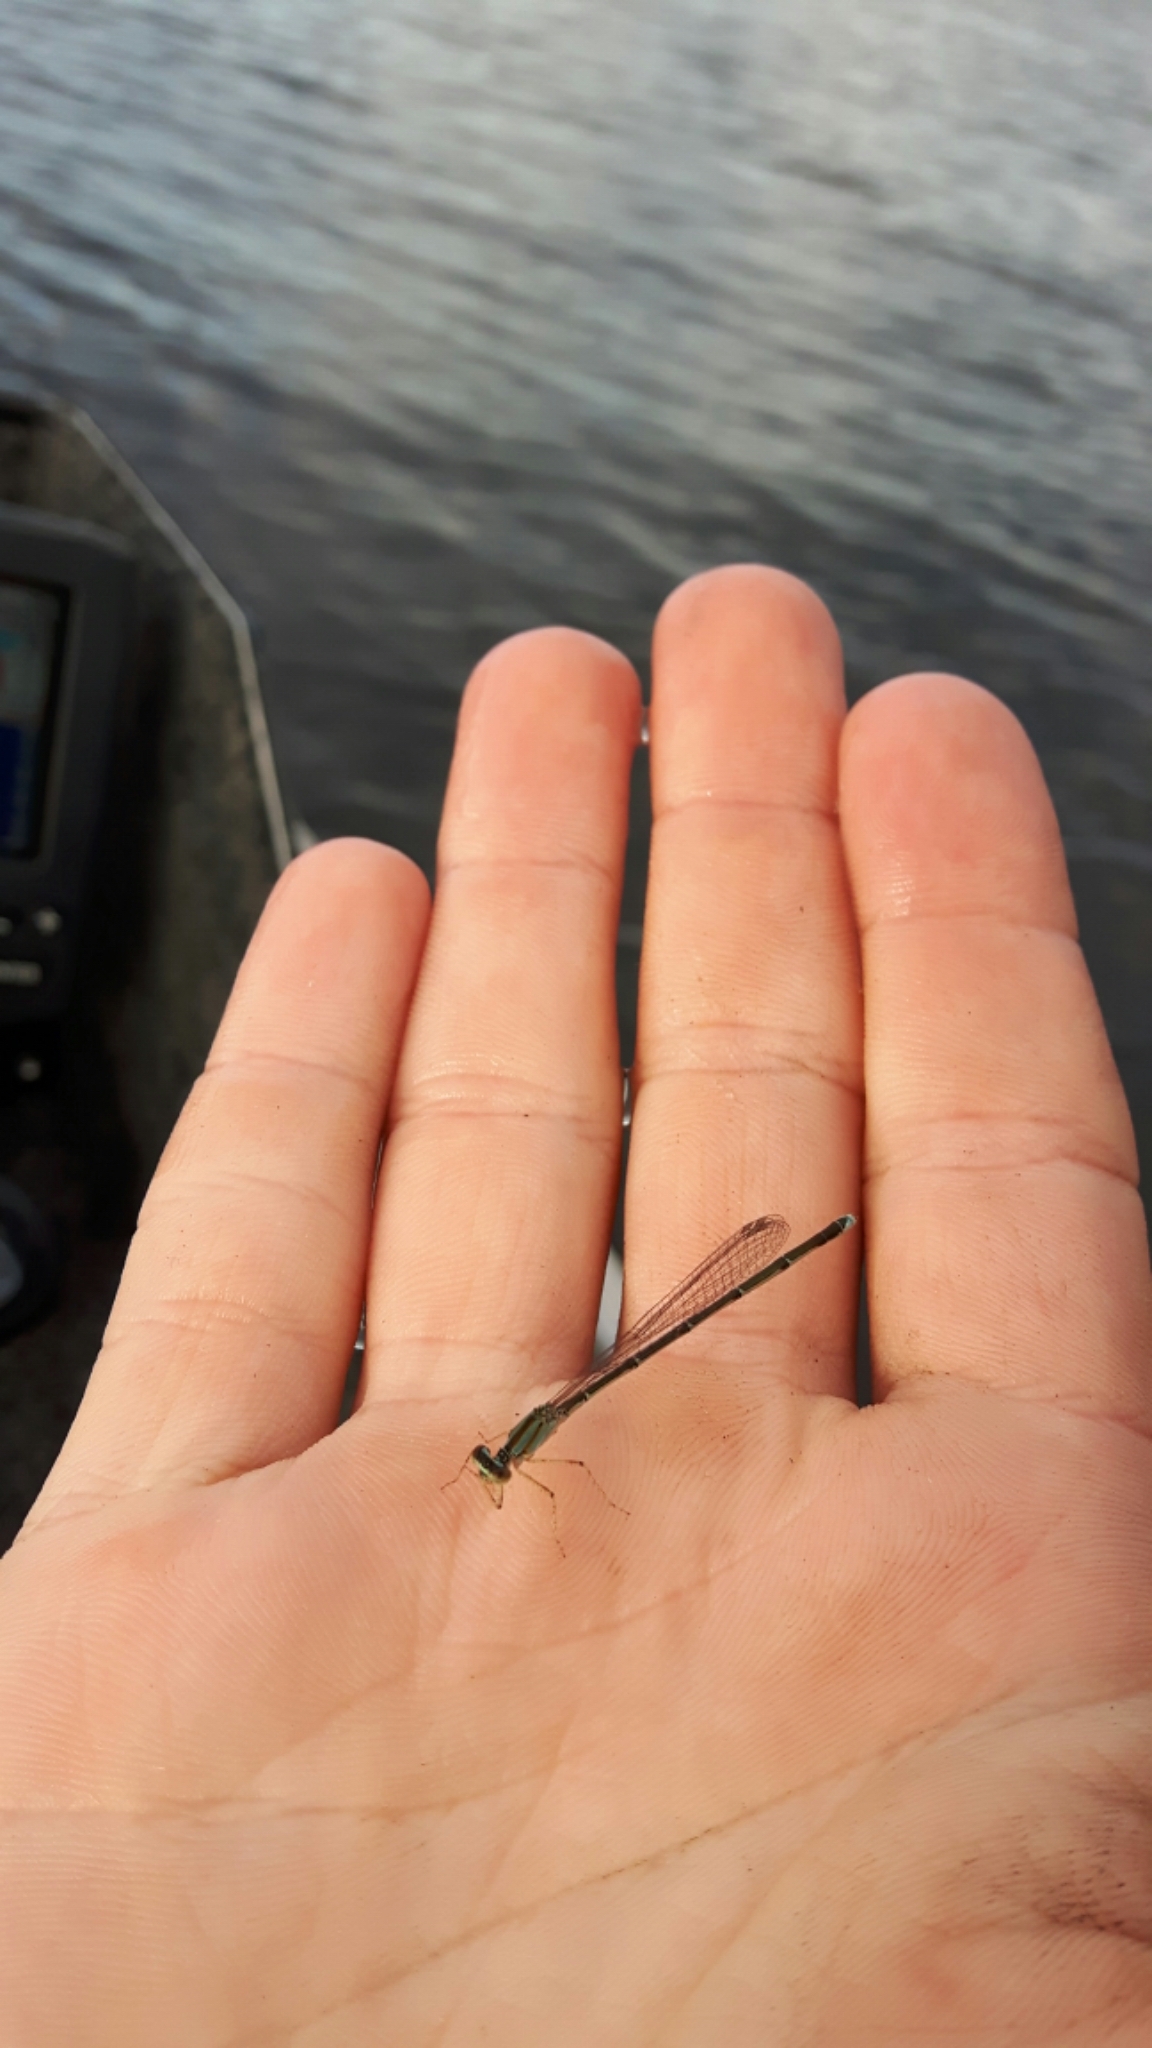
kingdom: Animalia
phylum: Arthropoda
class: Insecta
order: Odonata
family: Coenagrionidae
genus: Enallagma
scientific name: Enallagma vesperum
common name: Vesper bluet
